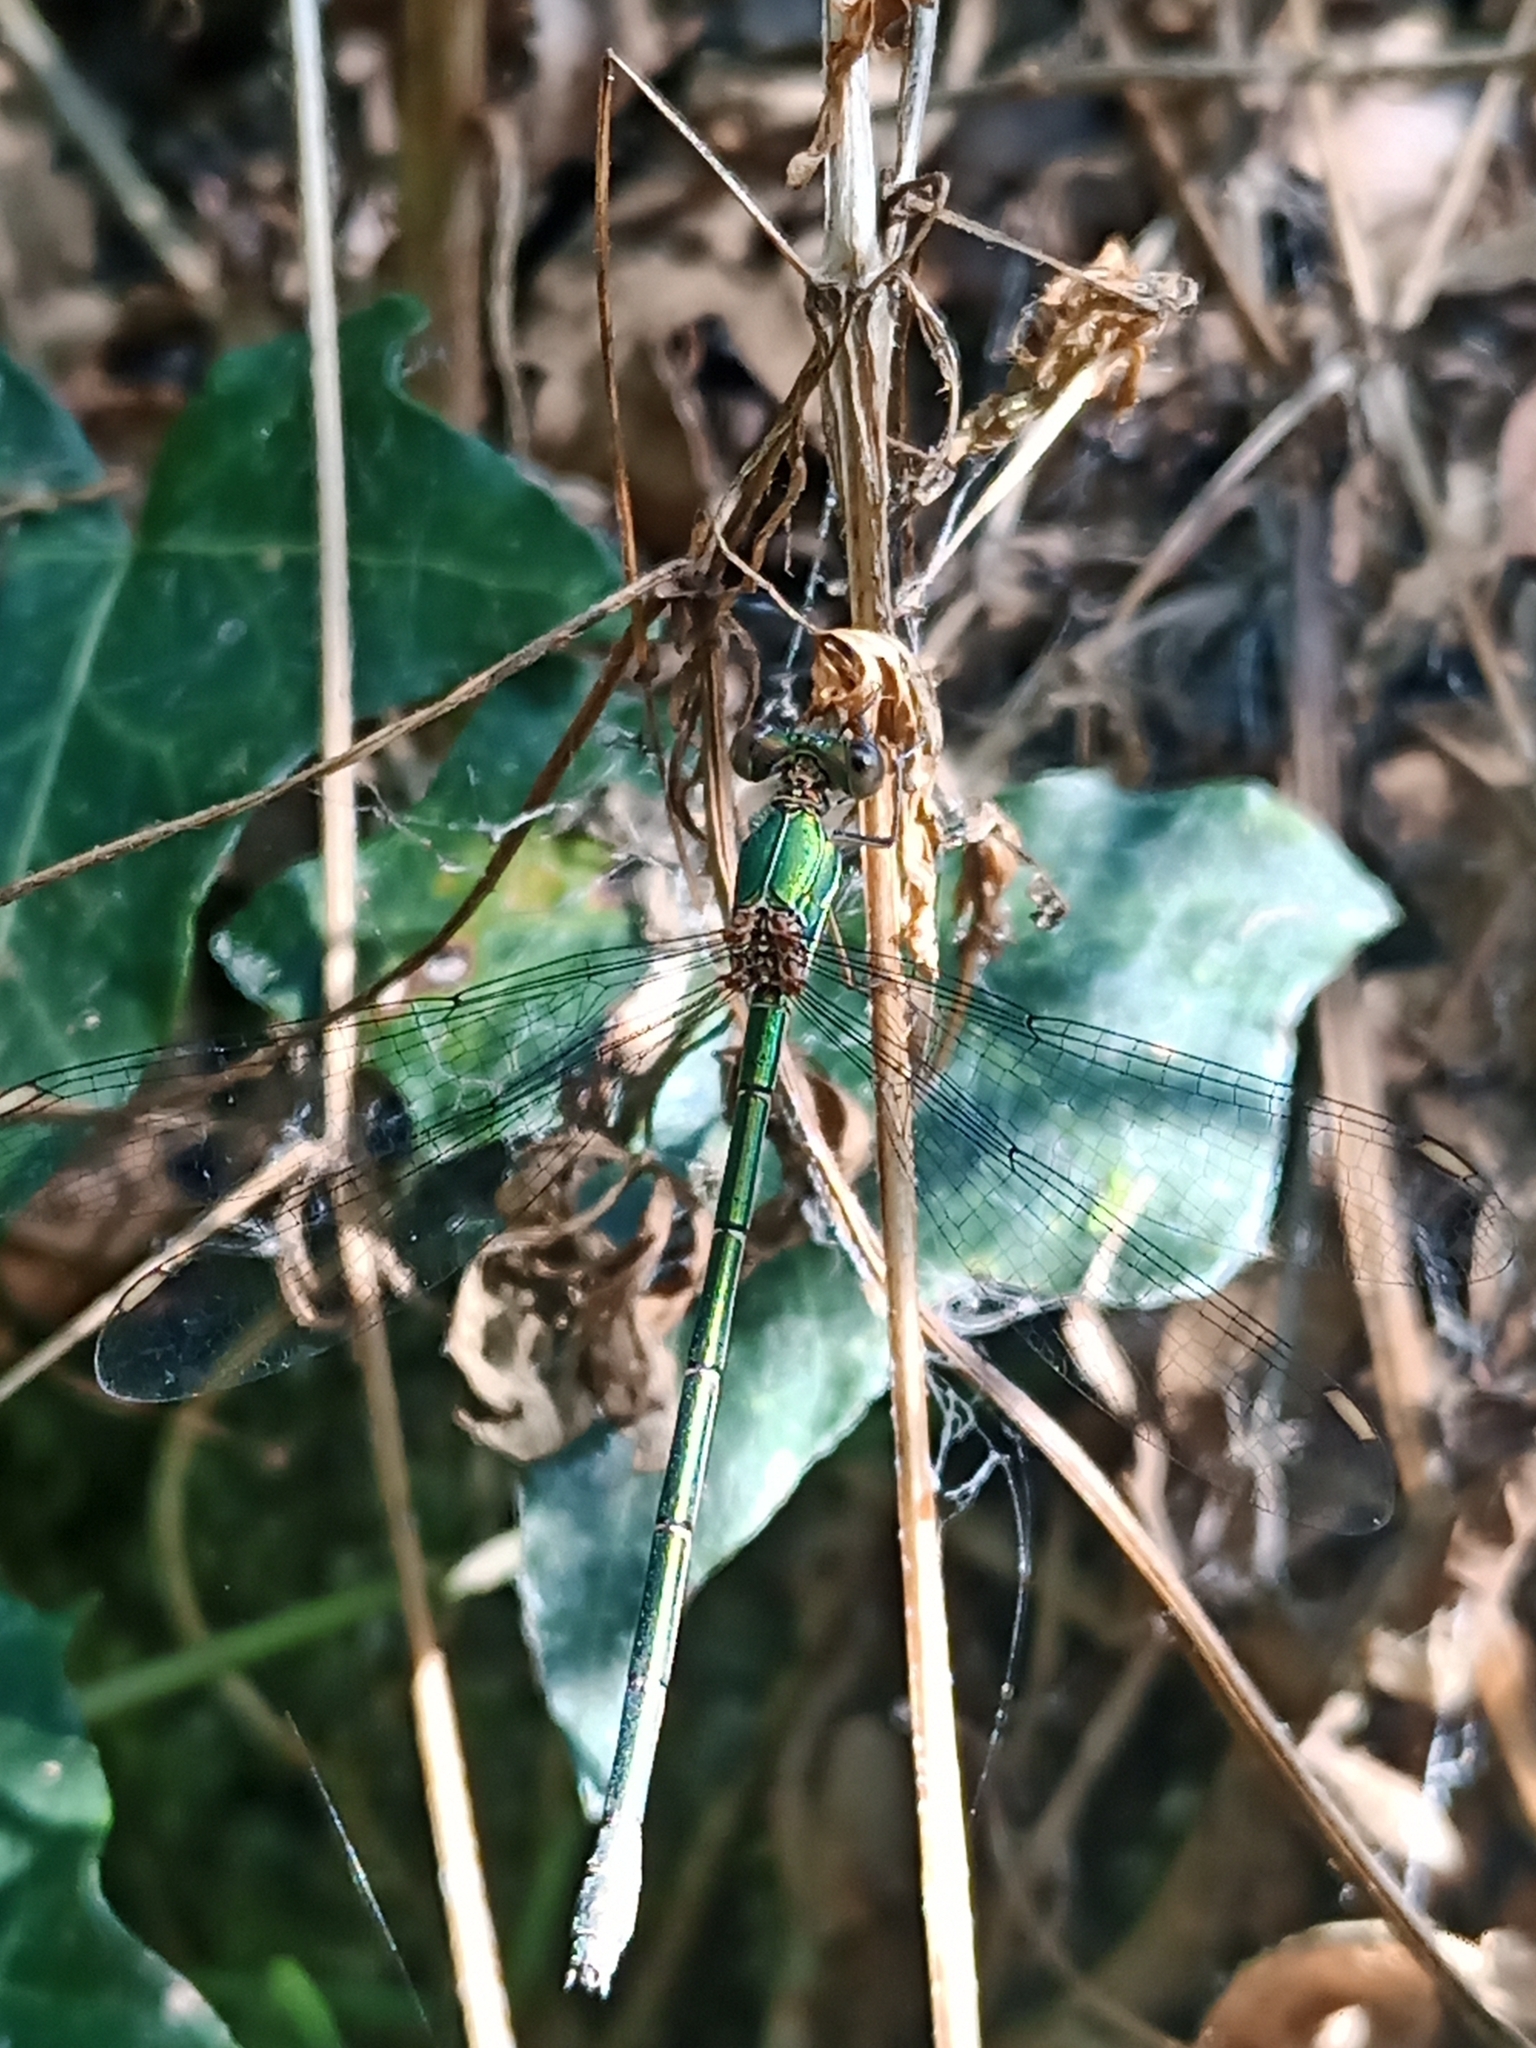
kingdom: Animalia
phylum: Arthropoda
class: Insecta
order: Odonata
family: Lestidae
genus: Chalcolestes
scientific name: Chalcolestes viridis
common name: Green emerald damselfly
